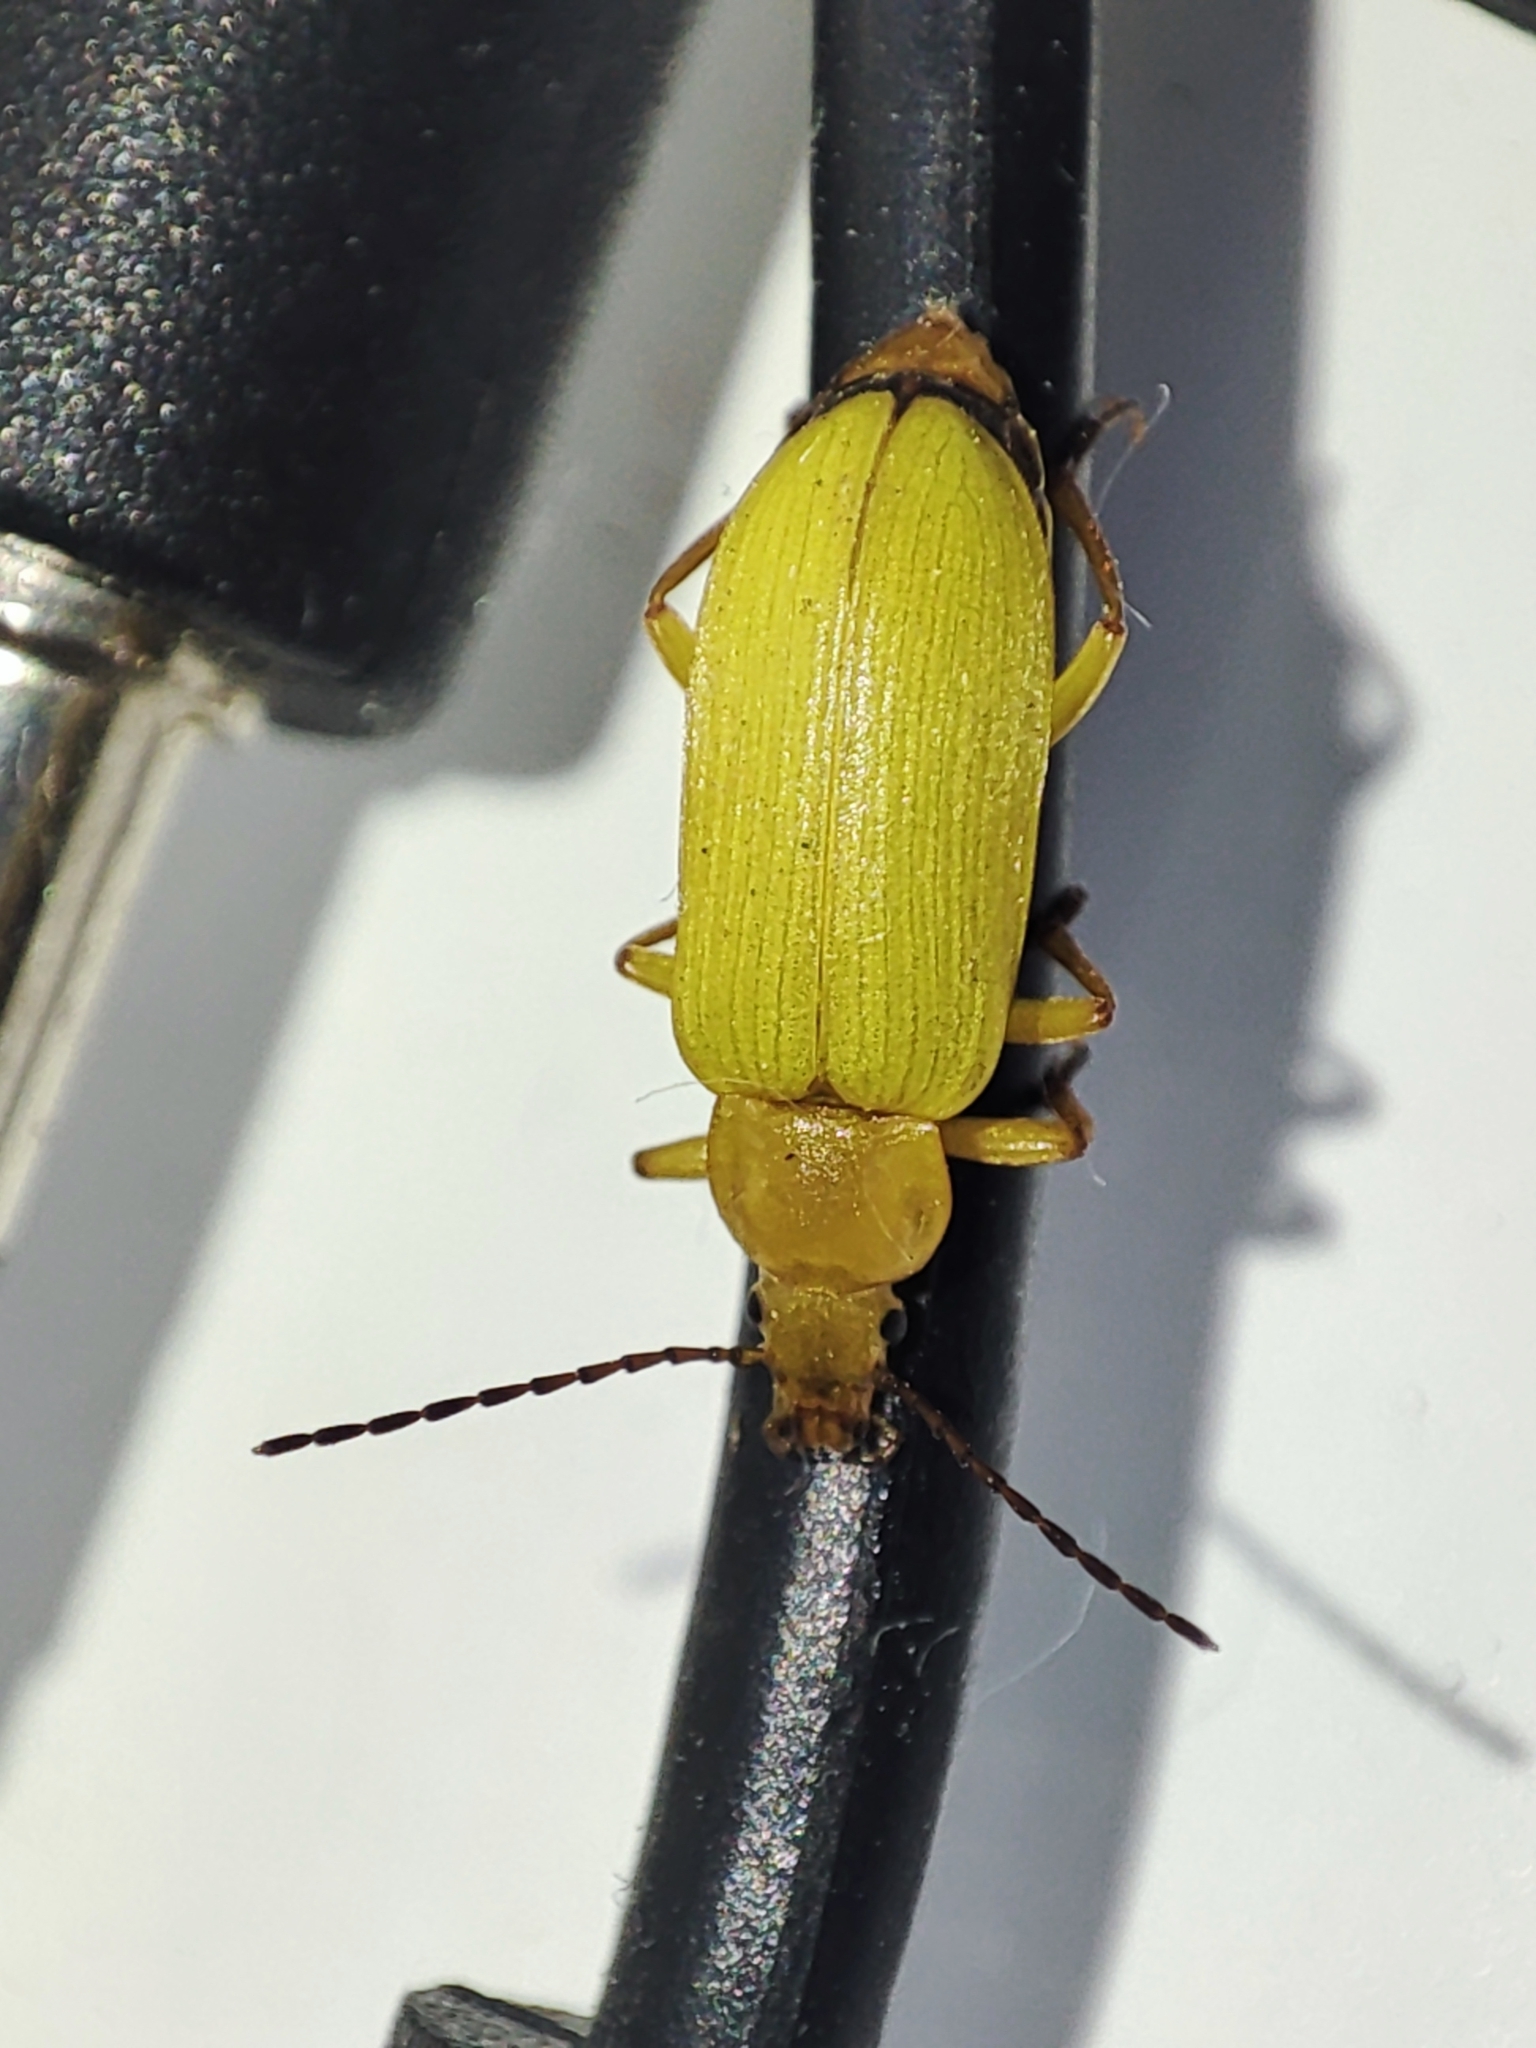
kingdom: Animalia
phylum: Arthropoda
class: Insecta
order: Coleoptera
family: Tenebrionidae
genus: Cteniopus
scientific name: Cteniopus sulphureus
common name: Sulphur beetle
